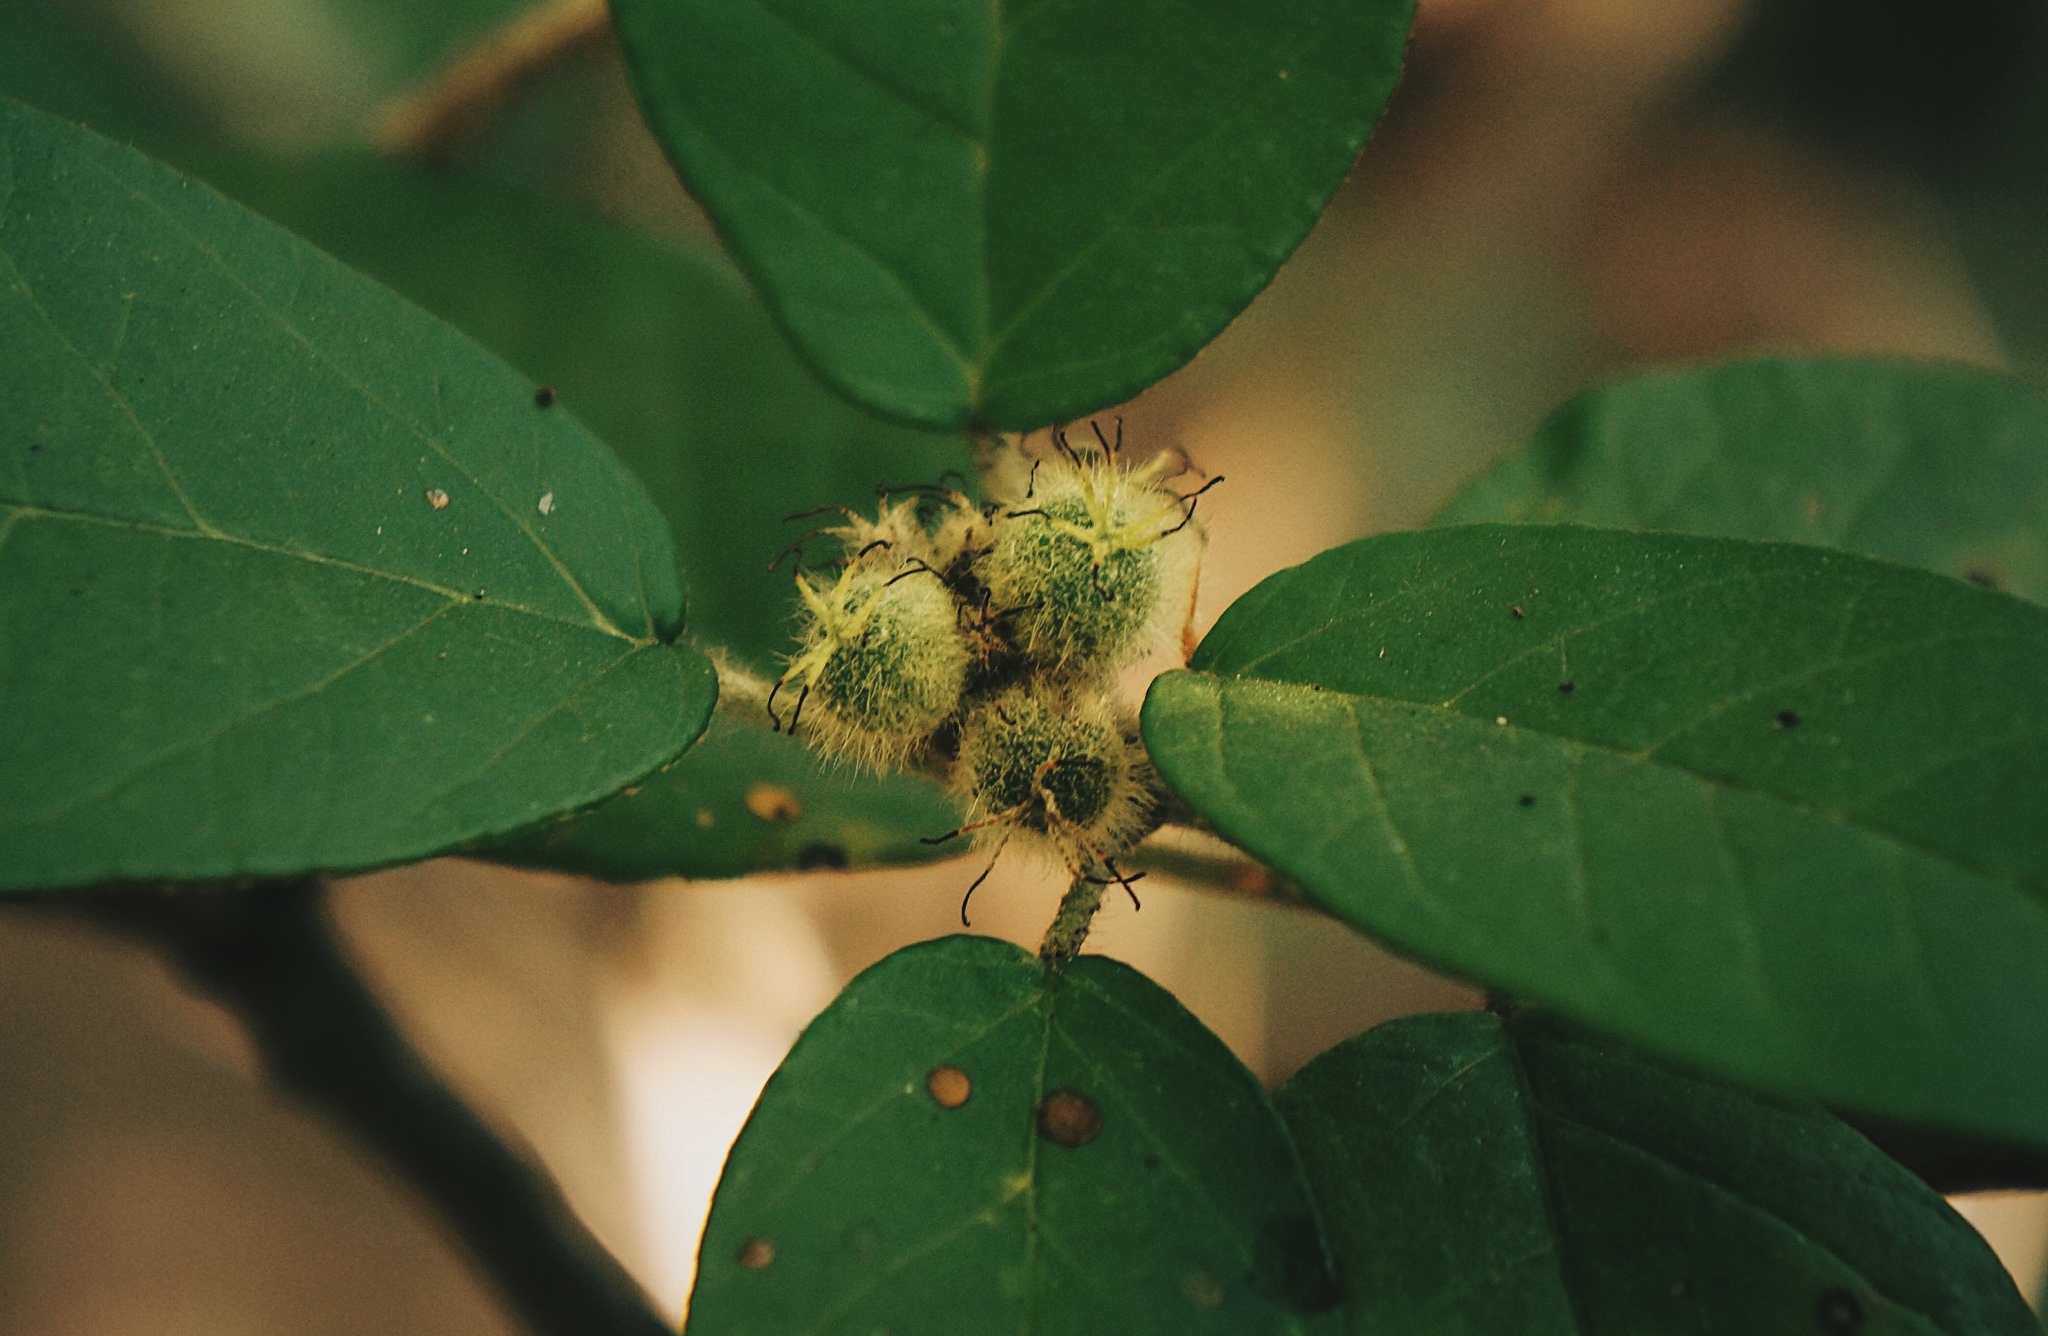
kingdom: Plantae
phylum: Tracheophyta
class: Magnoliopsida
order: Malpighiales
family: Euphorbiaceae
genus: Croton
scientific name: Croton cortesianus
